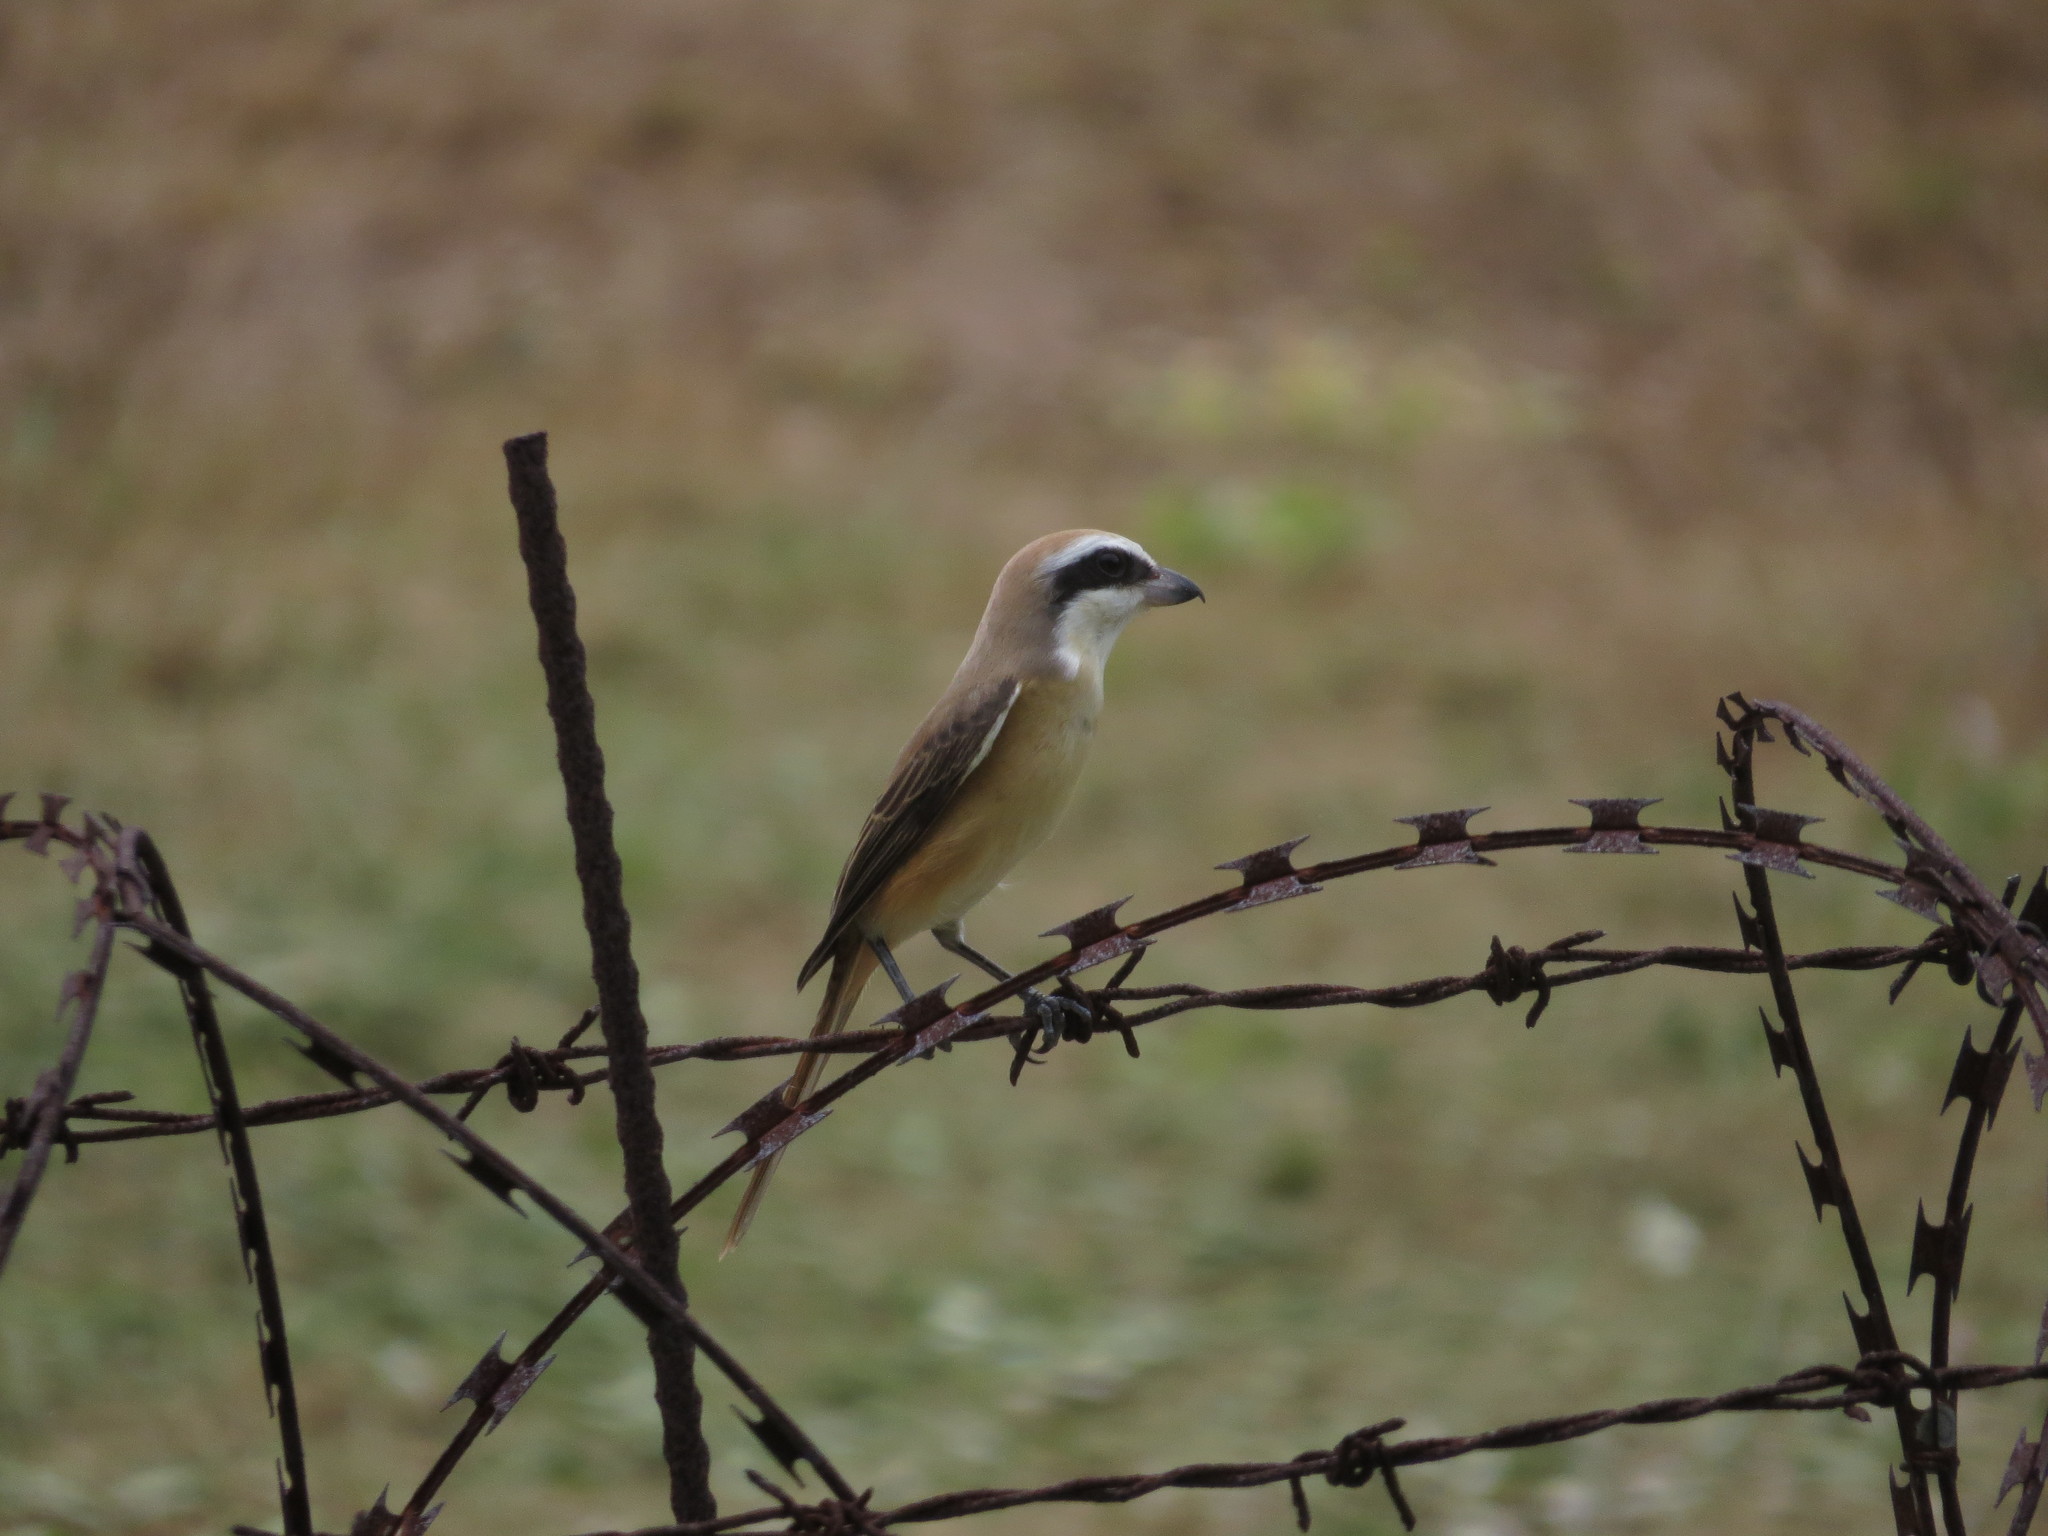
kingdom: Animalia
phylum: Chordata
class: Aves
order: Passeriformes
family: Laniidae
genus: Lanius
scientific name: Lanius cristatus
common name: Brown shrike
